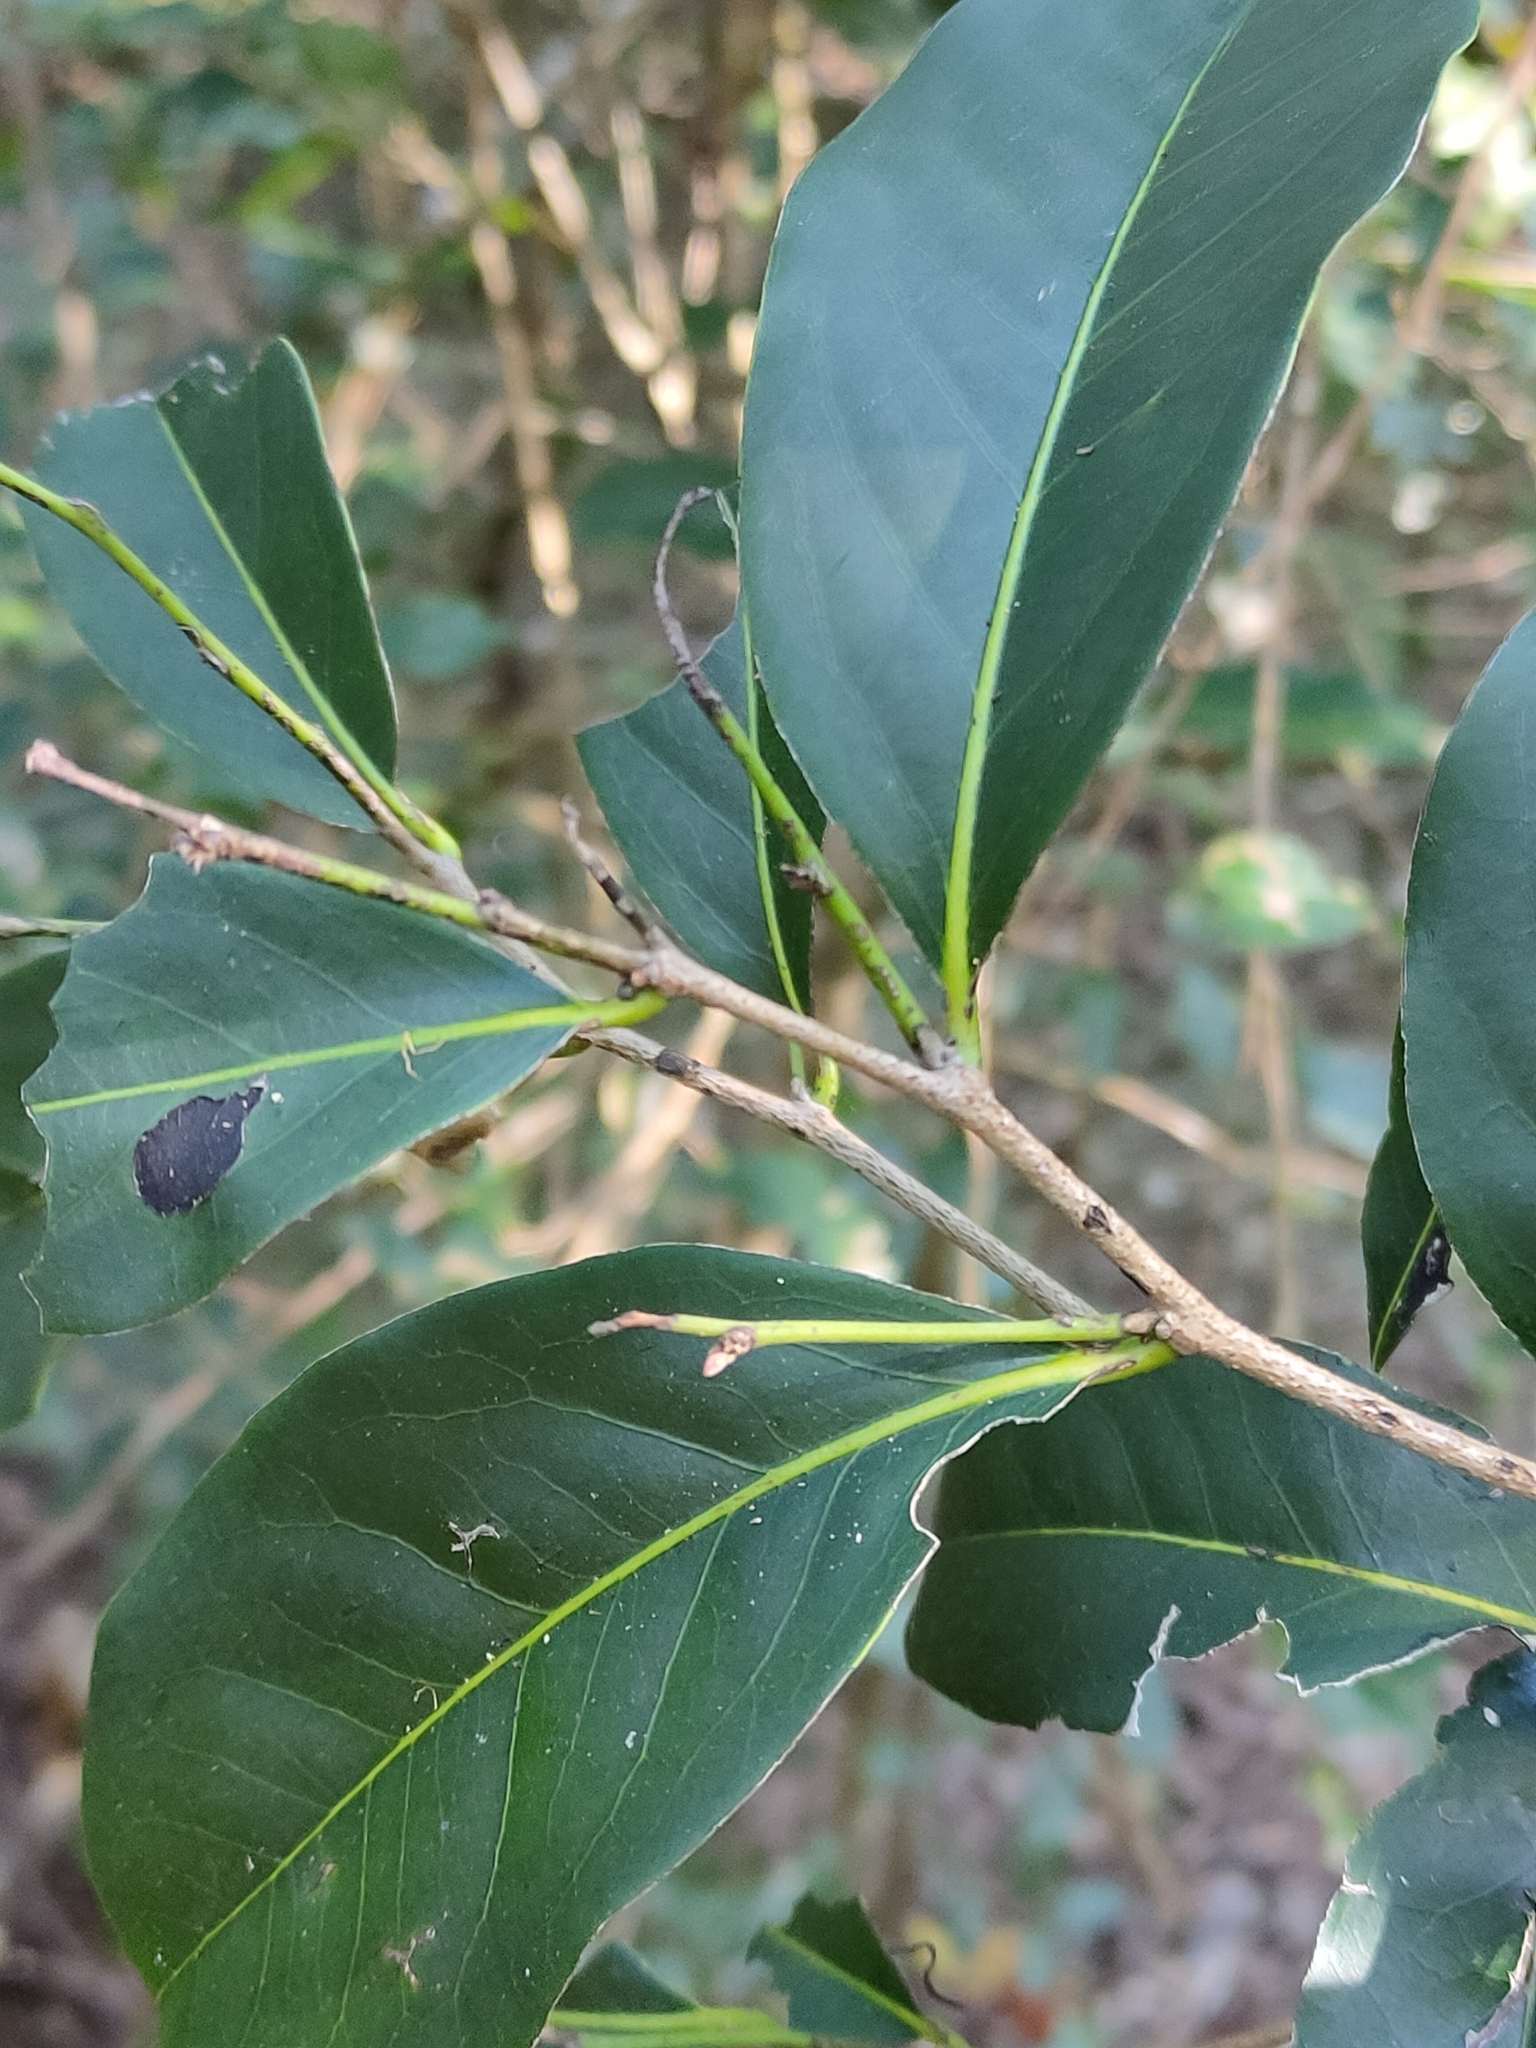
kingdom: Plantae
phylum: Tracheophyta
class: Magnoliopsida
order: Ericales
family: Ebenaceae
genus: Diospyros
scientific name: Diospyros fasciculosa
